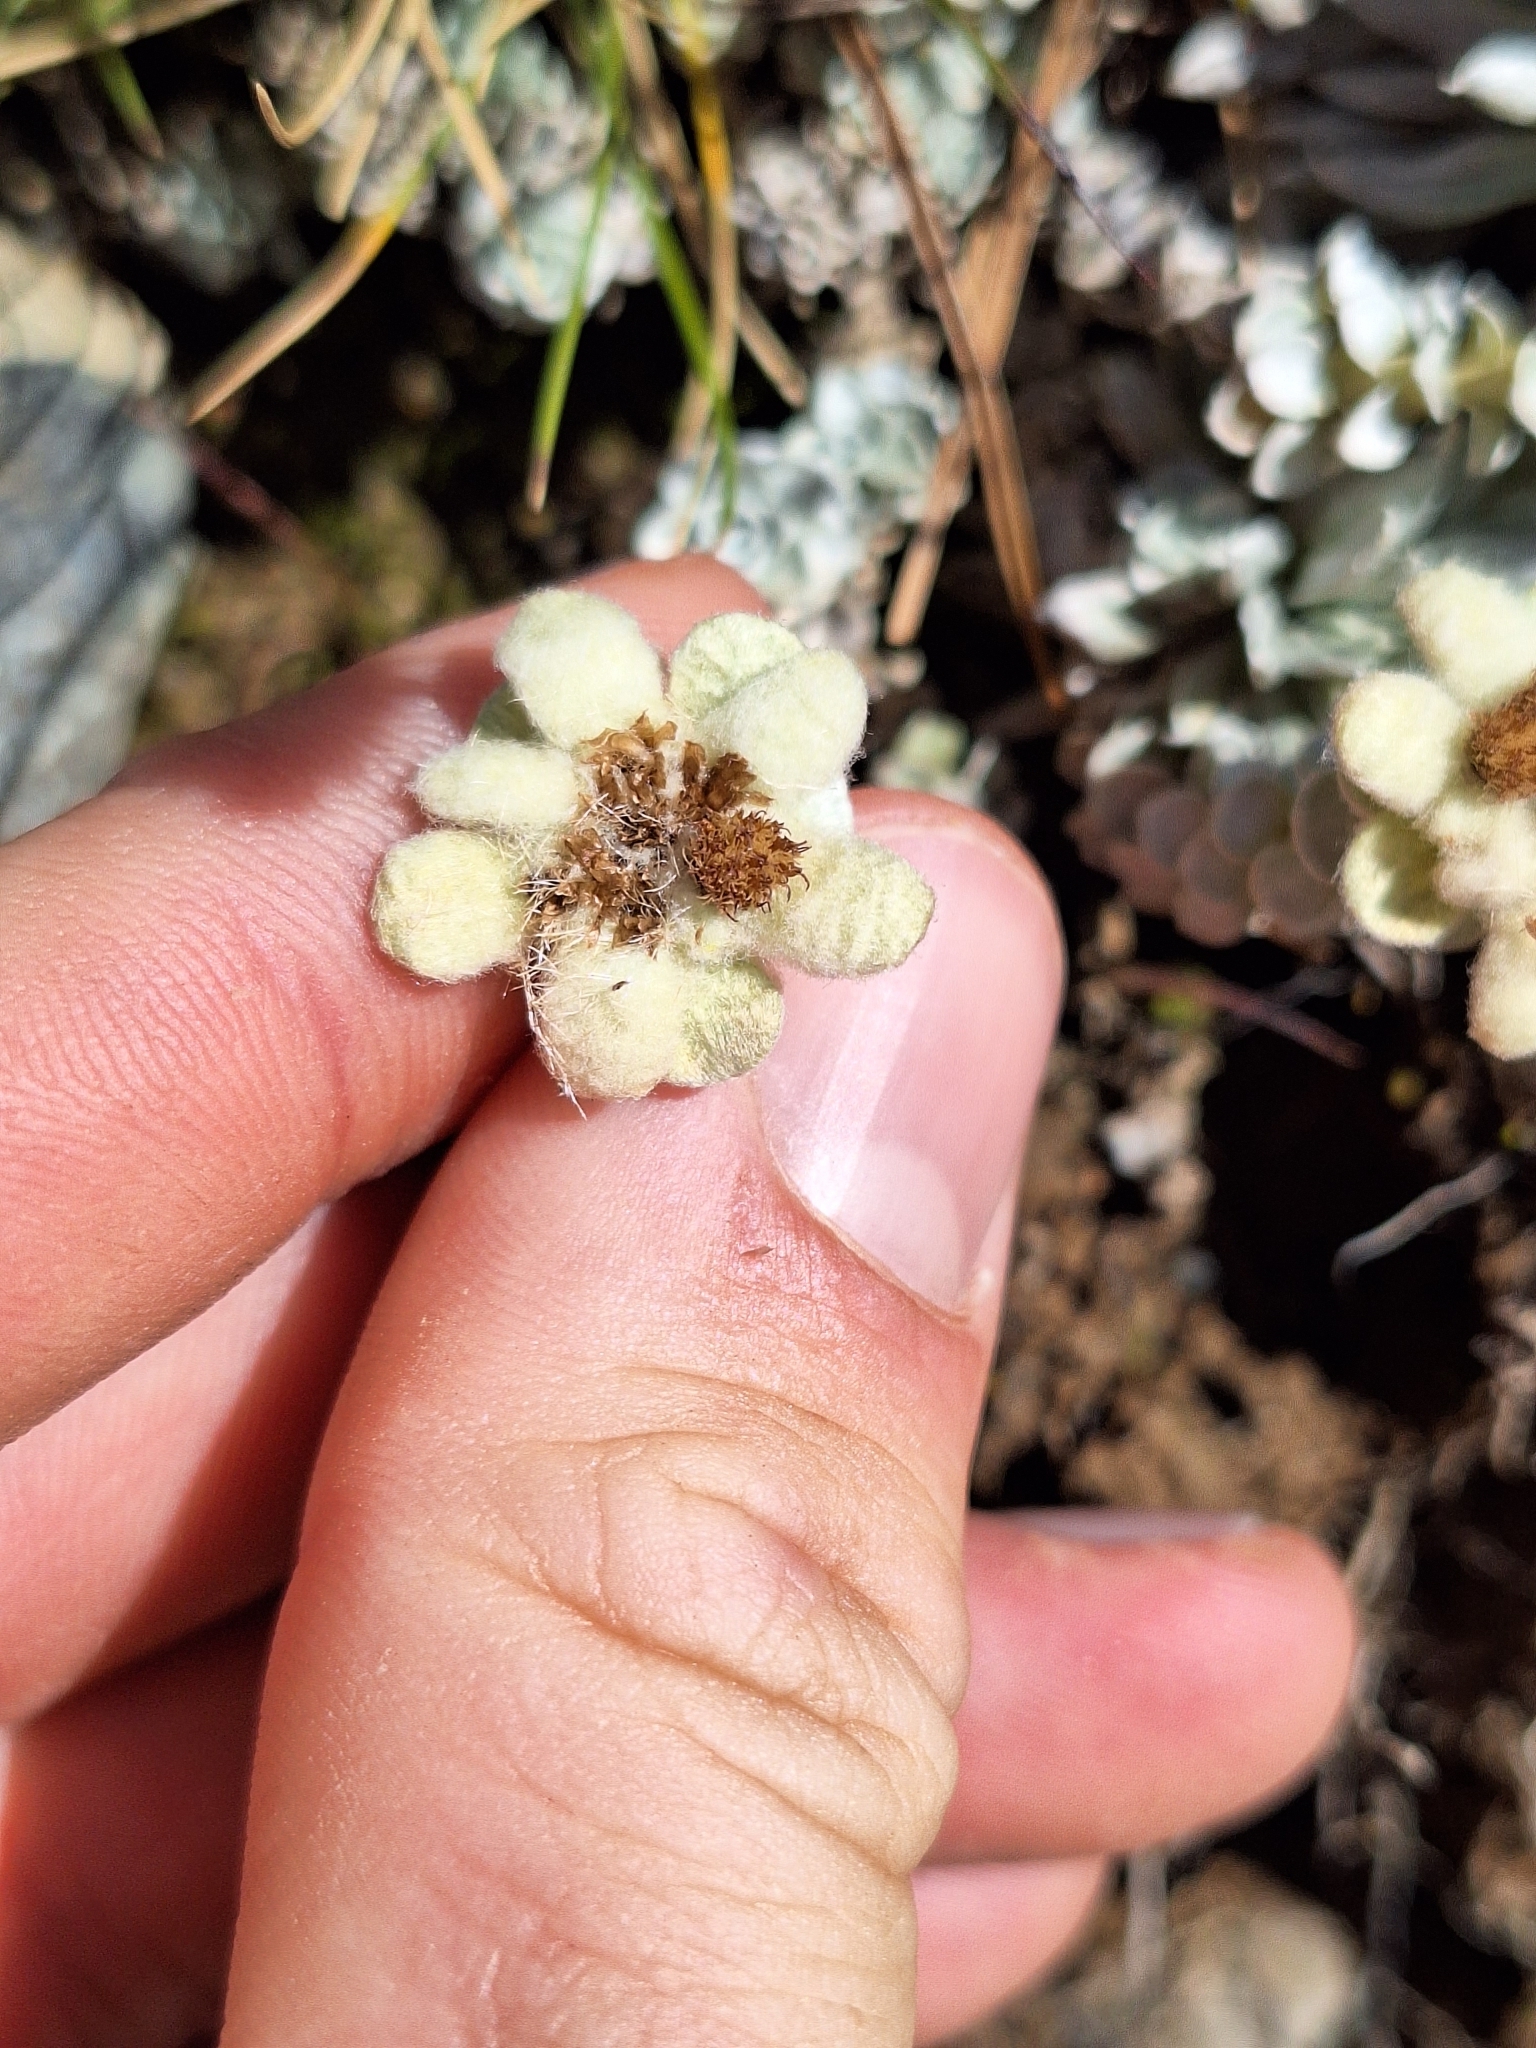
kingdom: Plantae
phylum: Tracheophyta
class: Magnoliopsida
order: Asterales
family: Asteraceae
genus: Leucogenes
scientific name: Leucogenes grandiceps
